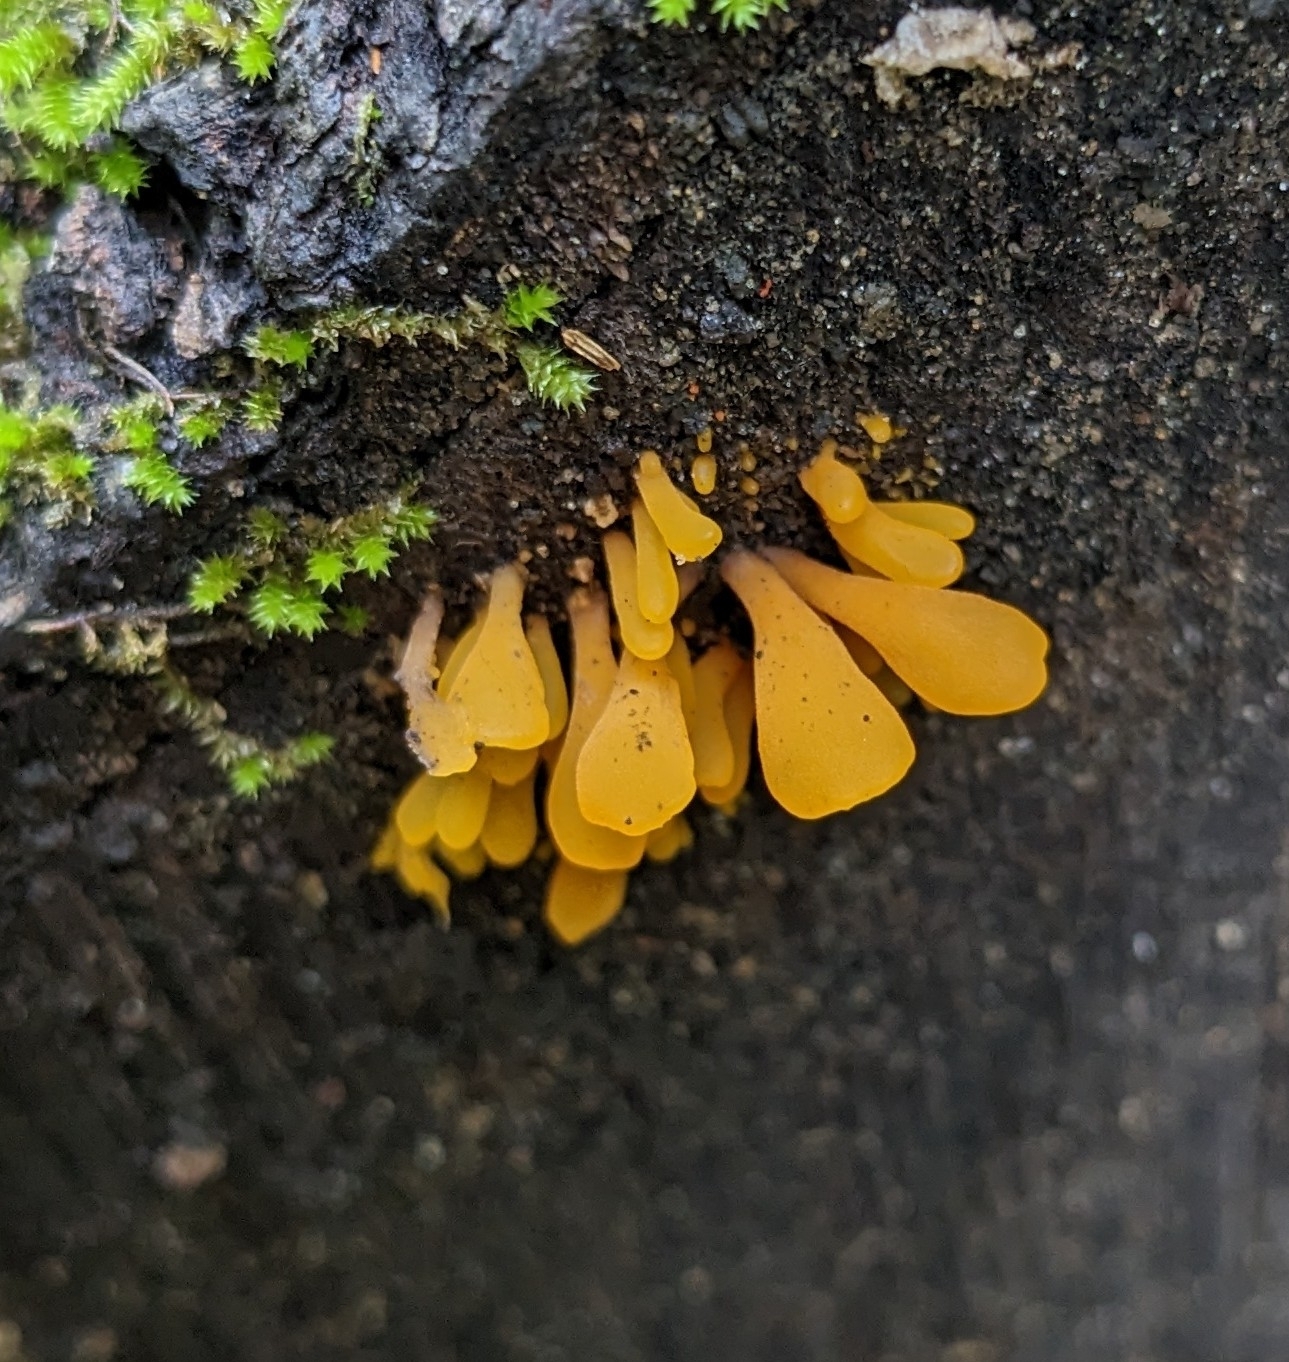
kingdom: Fungi
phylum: Basidiomycota
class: Dacrymycetes
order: Dacrymycetales
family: Dacrymycetaceae
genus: Dacrymyces
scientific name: Dacrymyces spathularius
